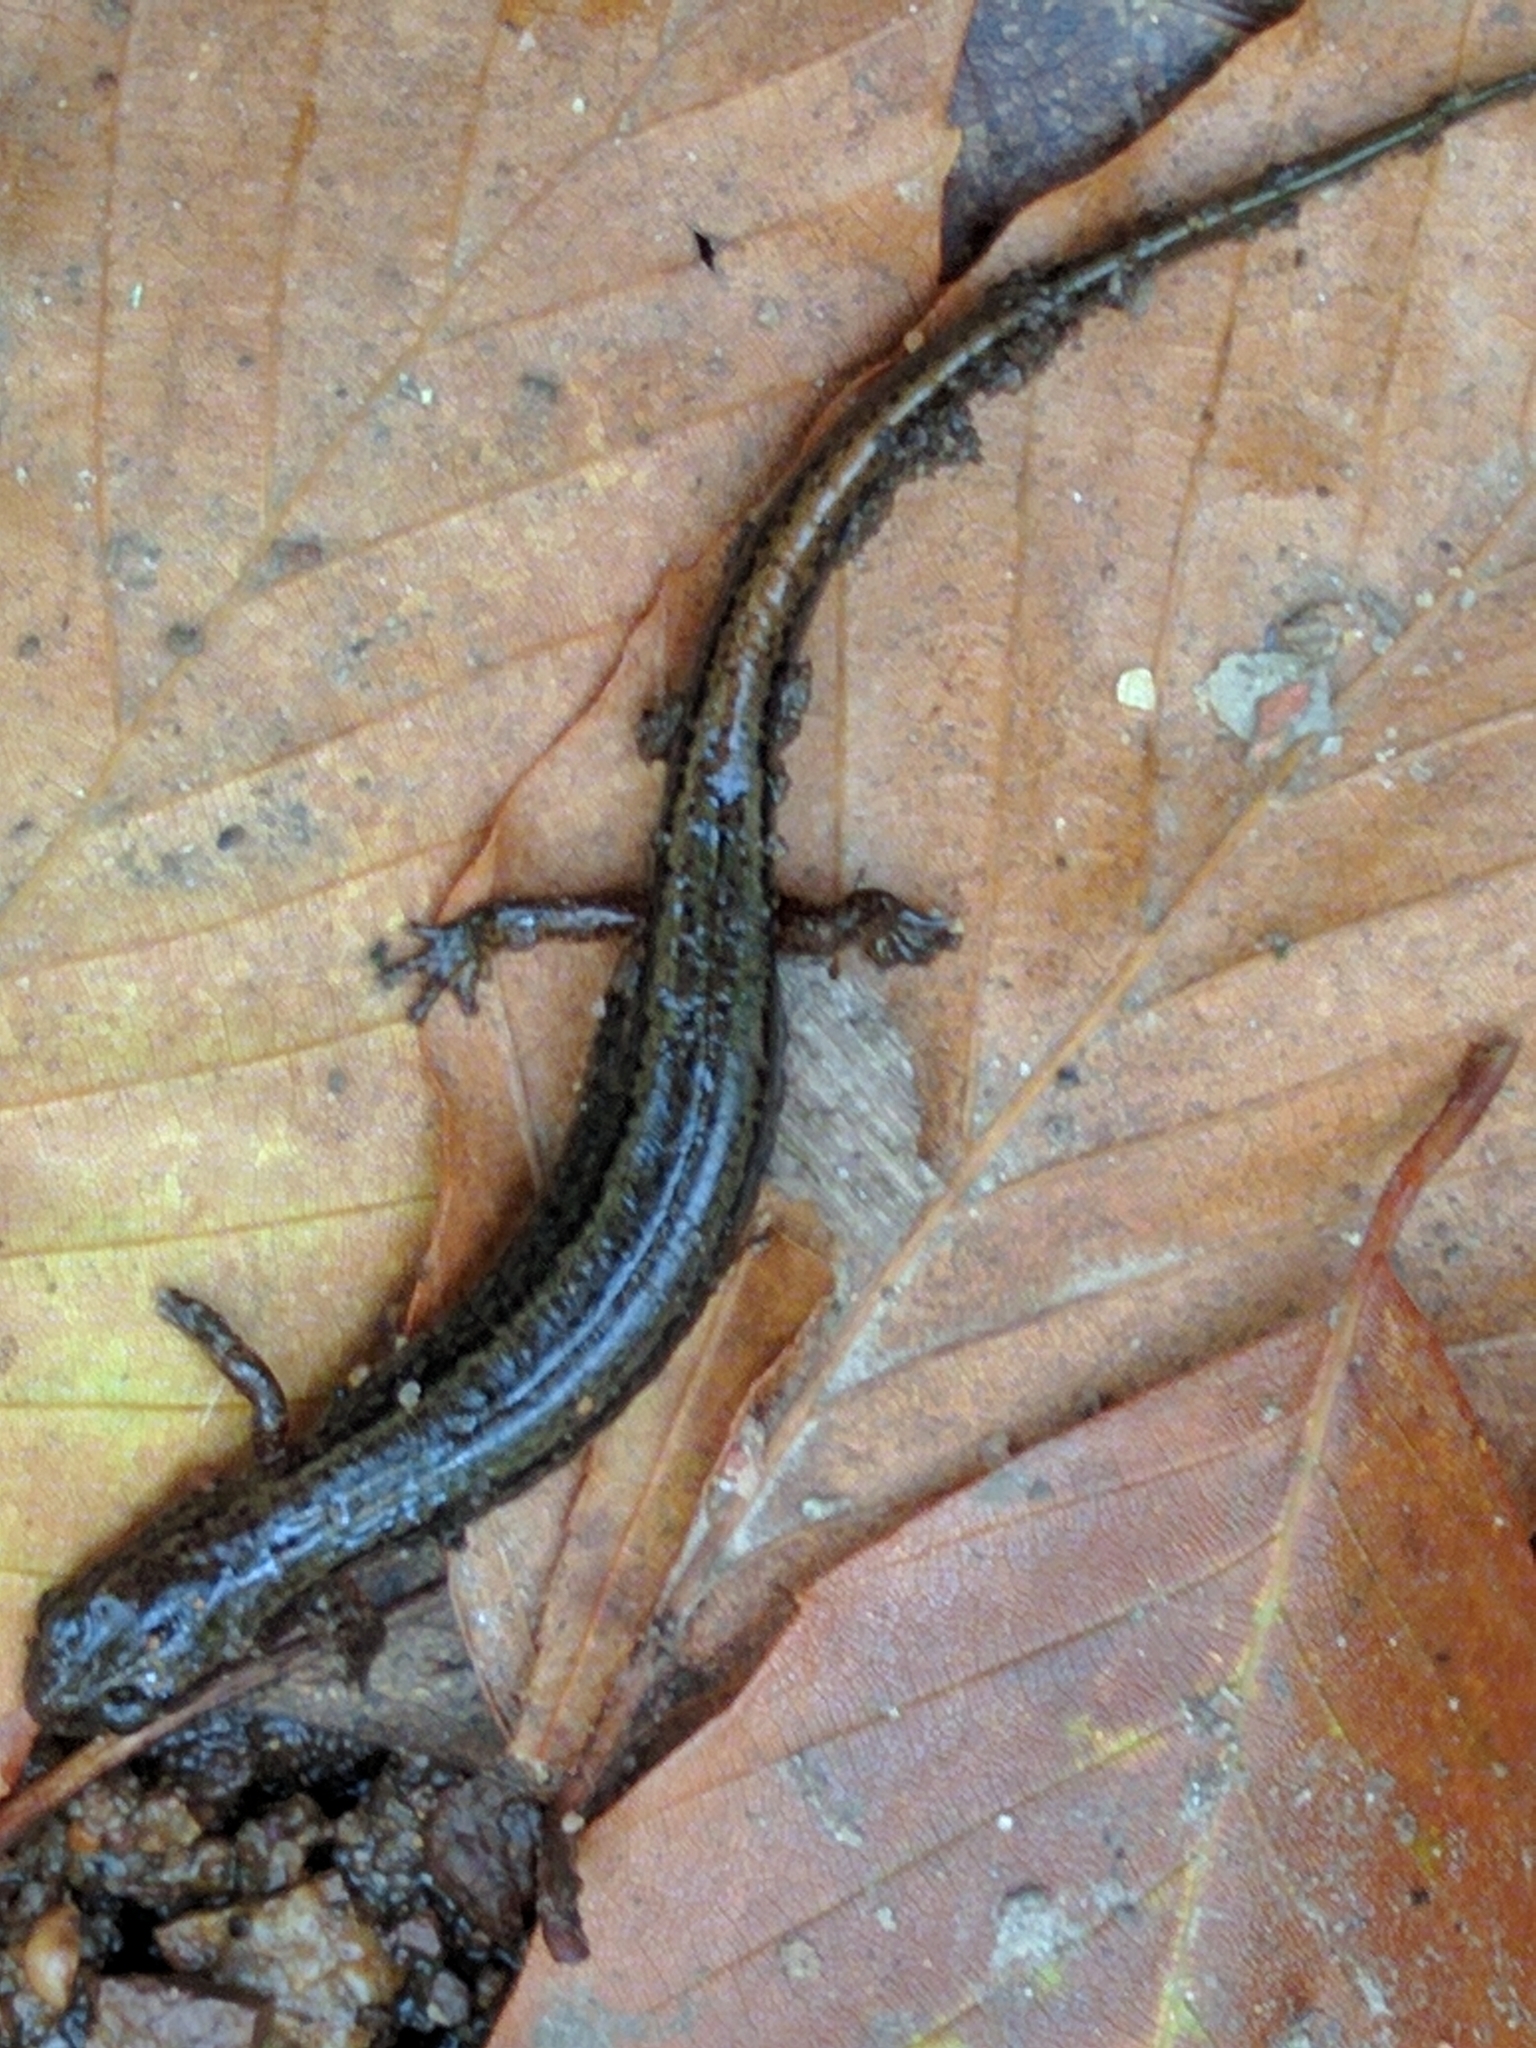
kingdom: Animalia
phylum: Chordata
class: Amphibia
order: Caudata
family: Plethodontidae
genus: Eurycea
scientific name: Eurycea bislineata
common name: Northern two-lined salamander
